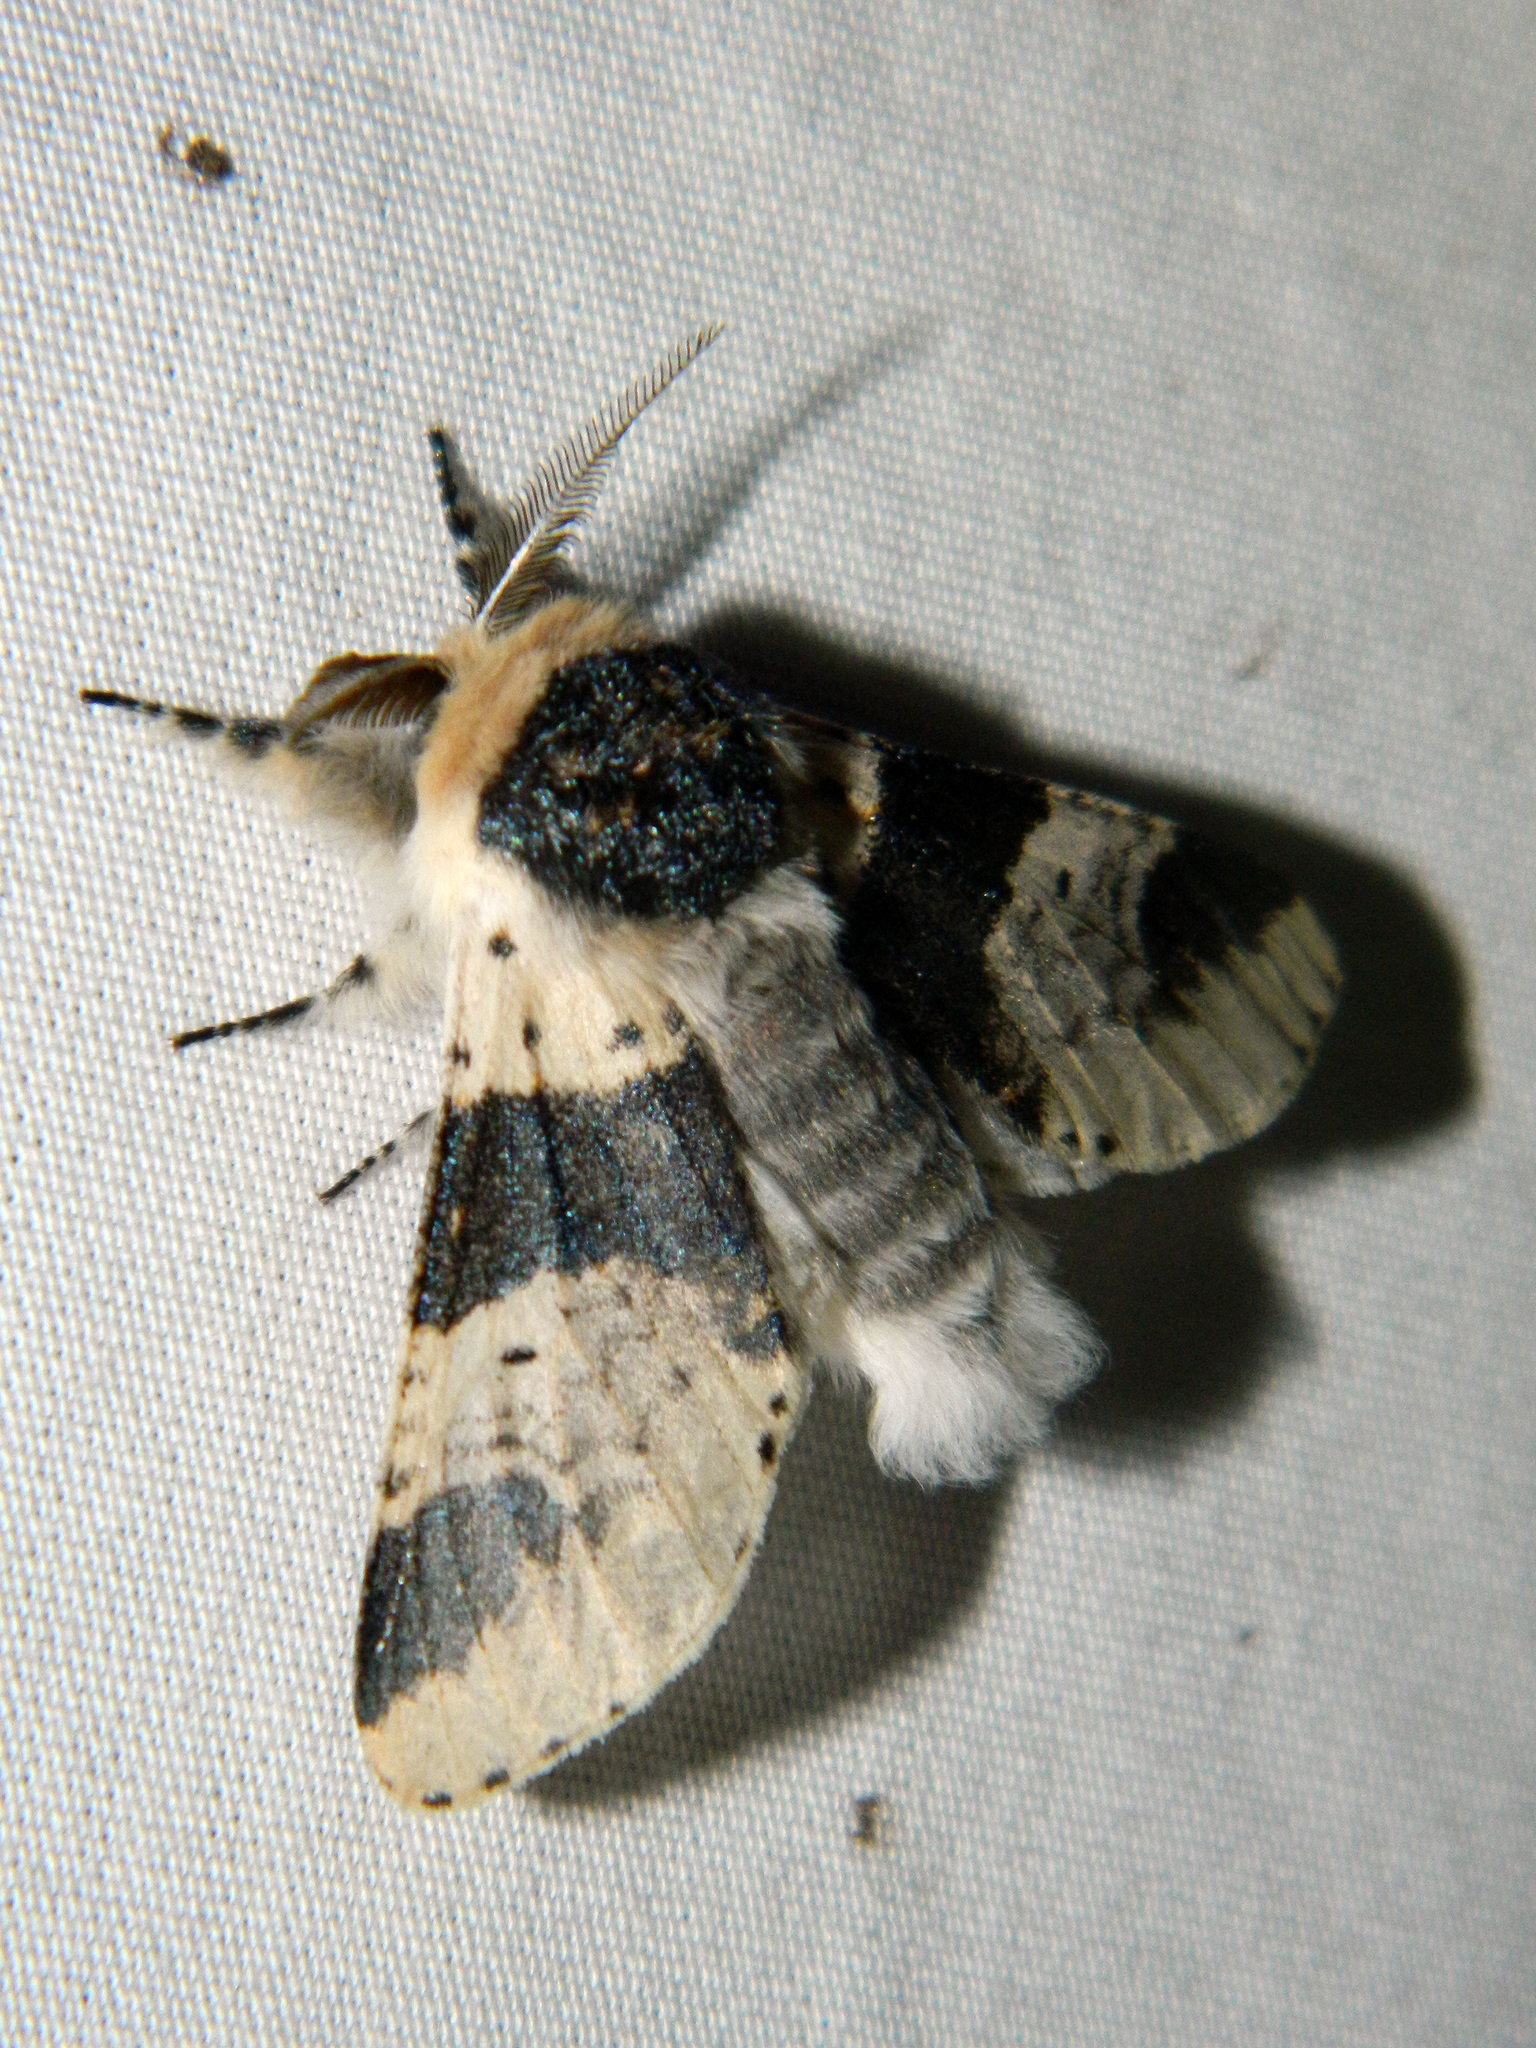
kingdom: Animalia
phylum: Arthropoda
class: Insecta
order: Lepidoptera
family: Notodontidae
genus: Furcula
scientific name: Furcula modesta
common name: Modest furcula moth
